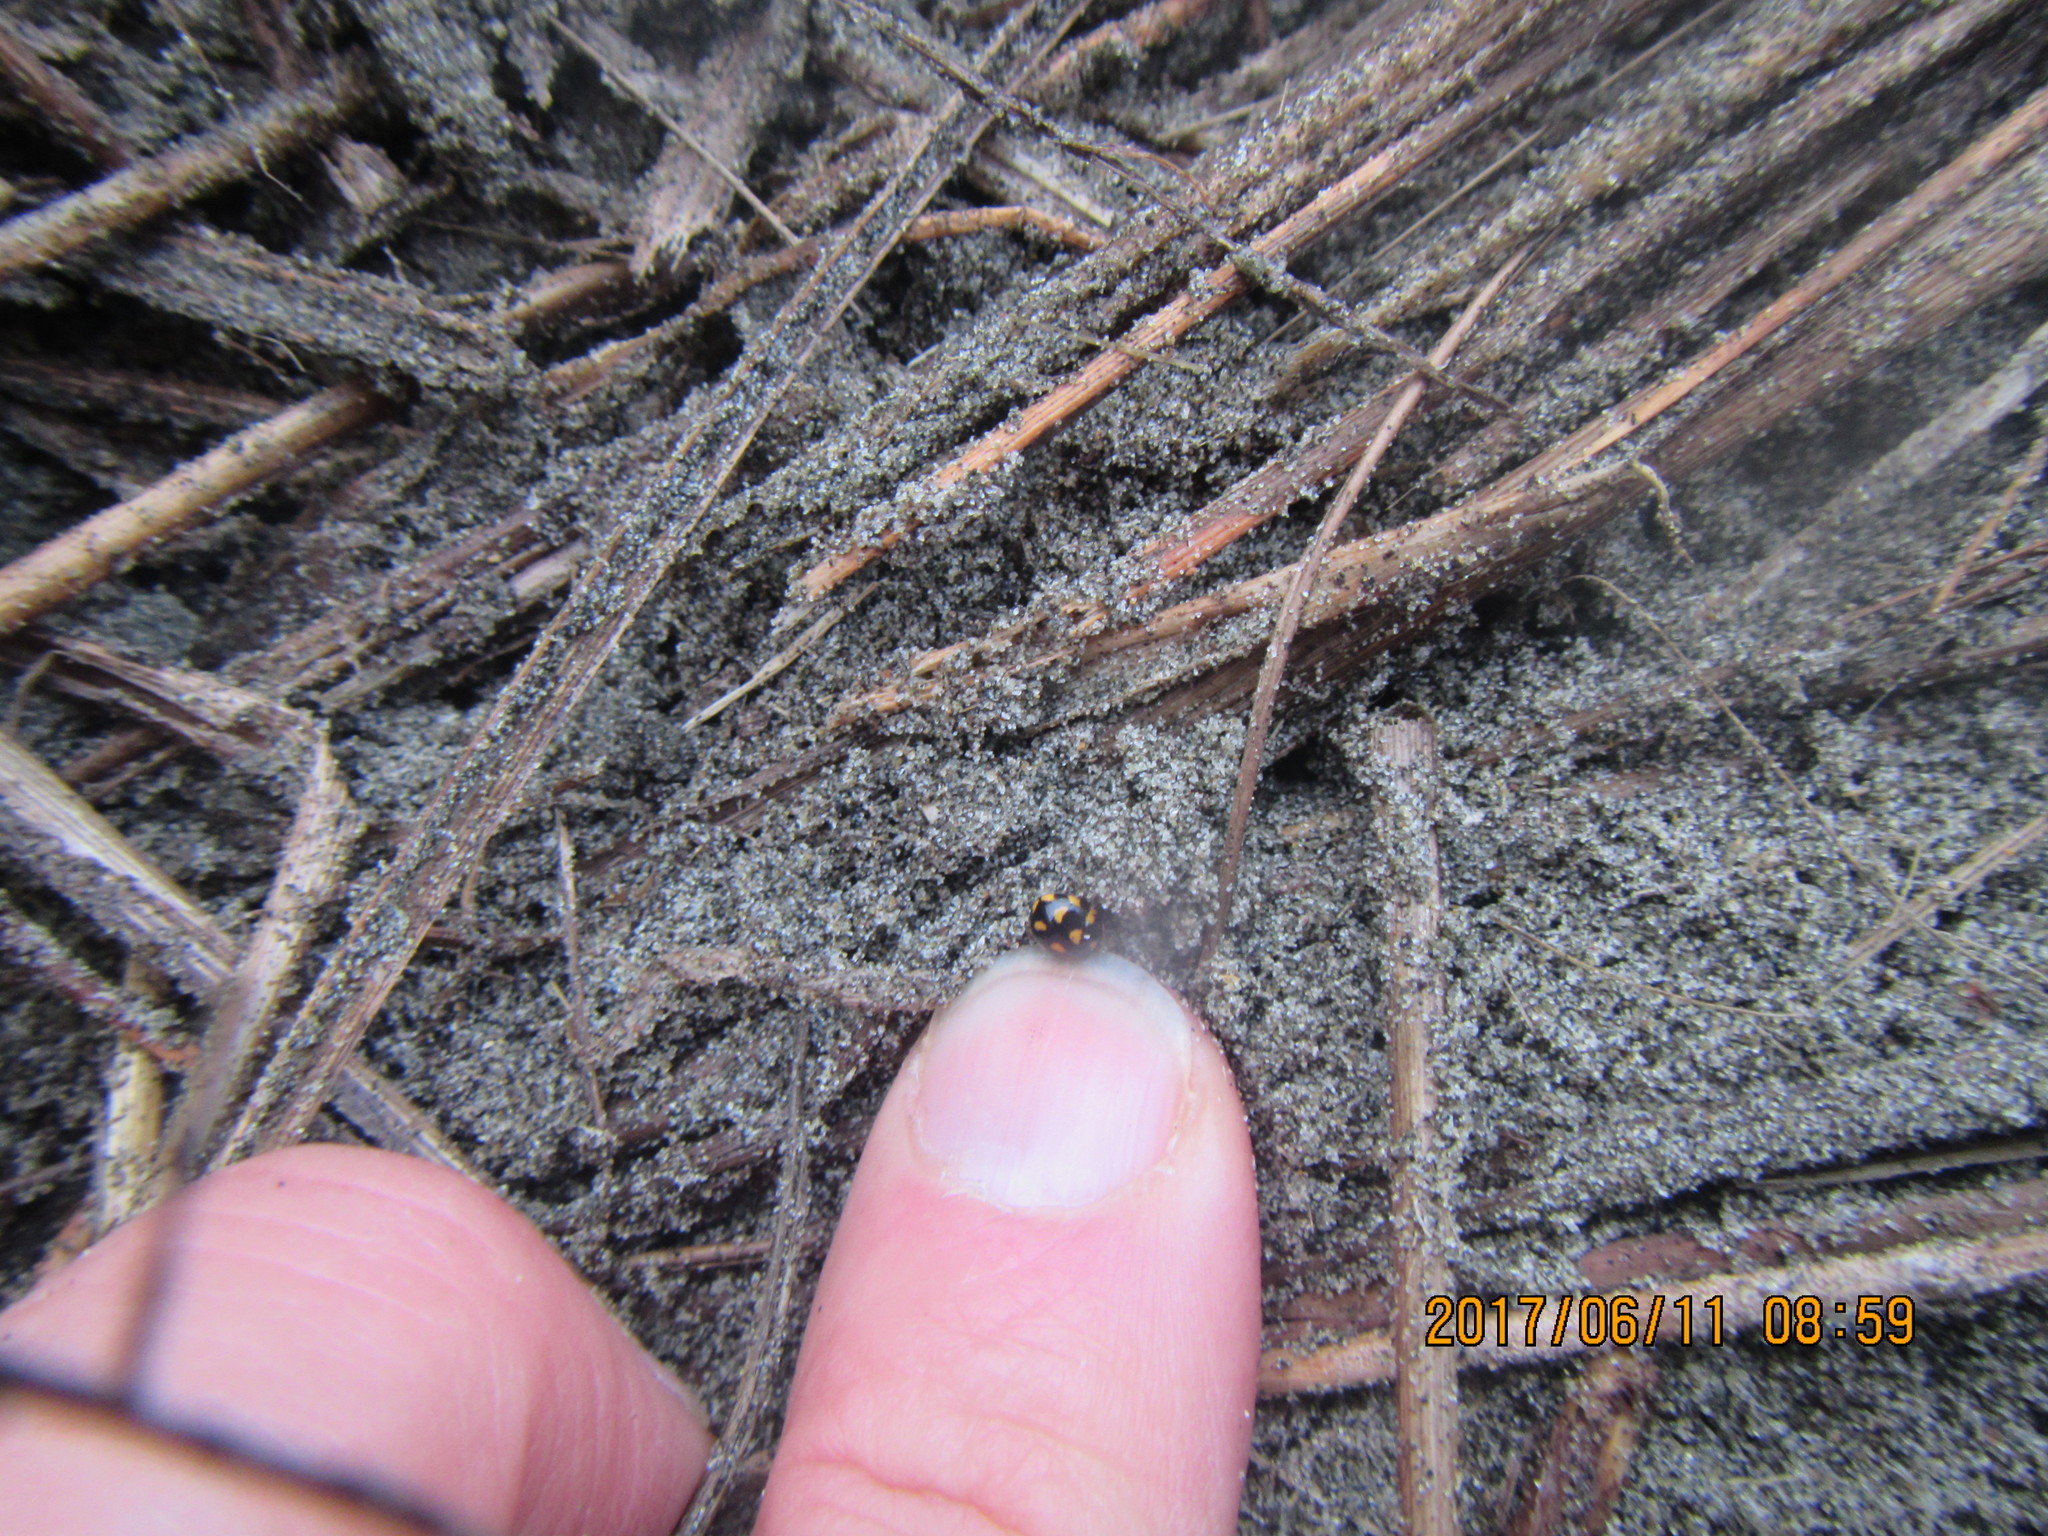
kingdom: Animalia
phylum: Arthropoda
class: Insecta
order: Coleoptera
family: Coccinellidae
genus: Coccinella
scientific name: Coccinella leonina
